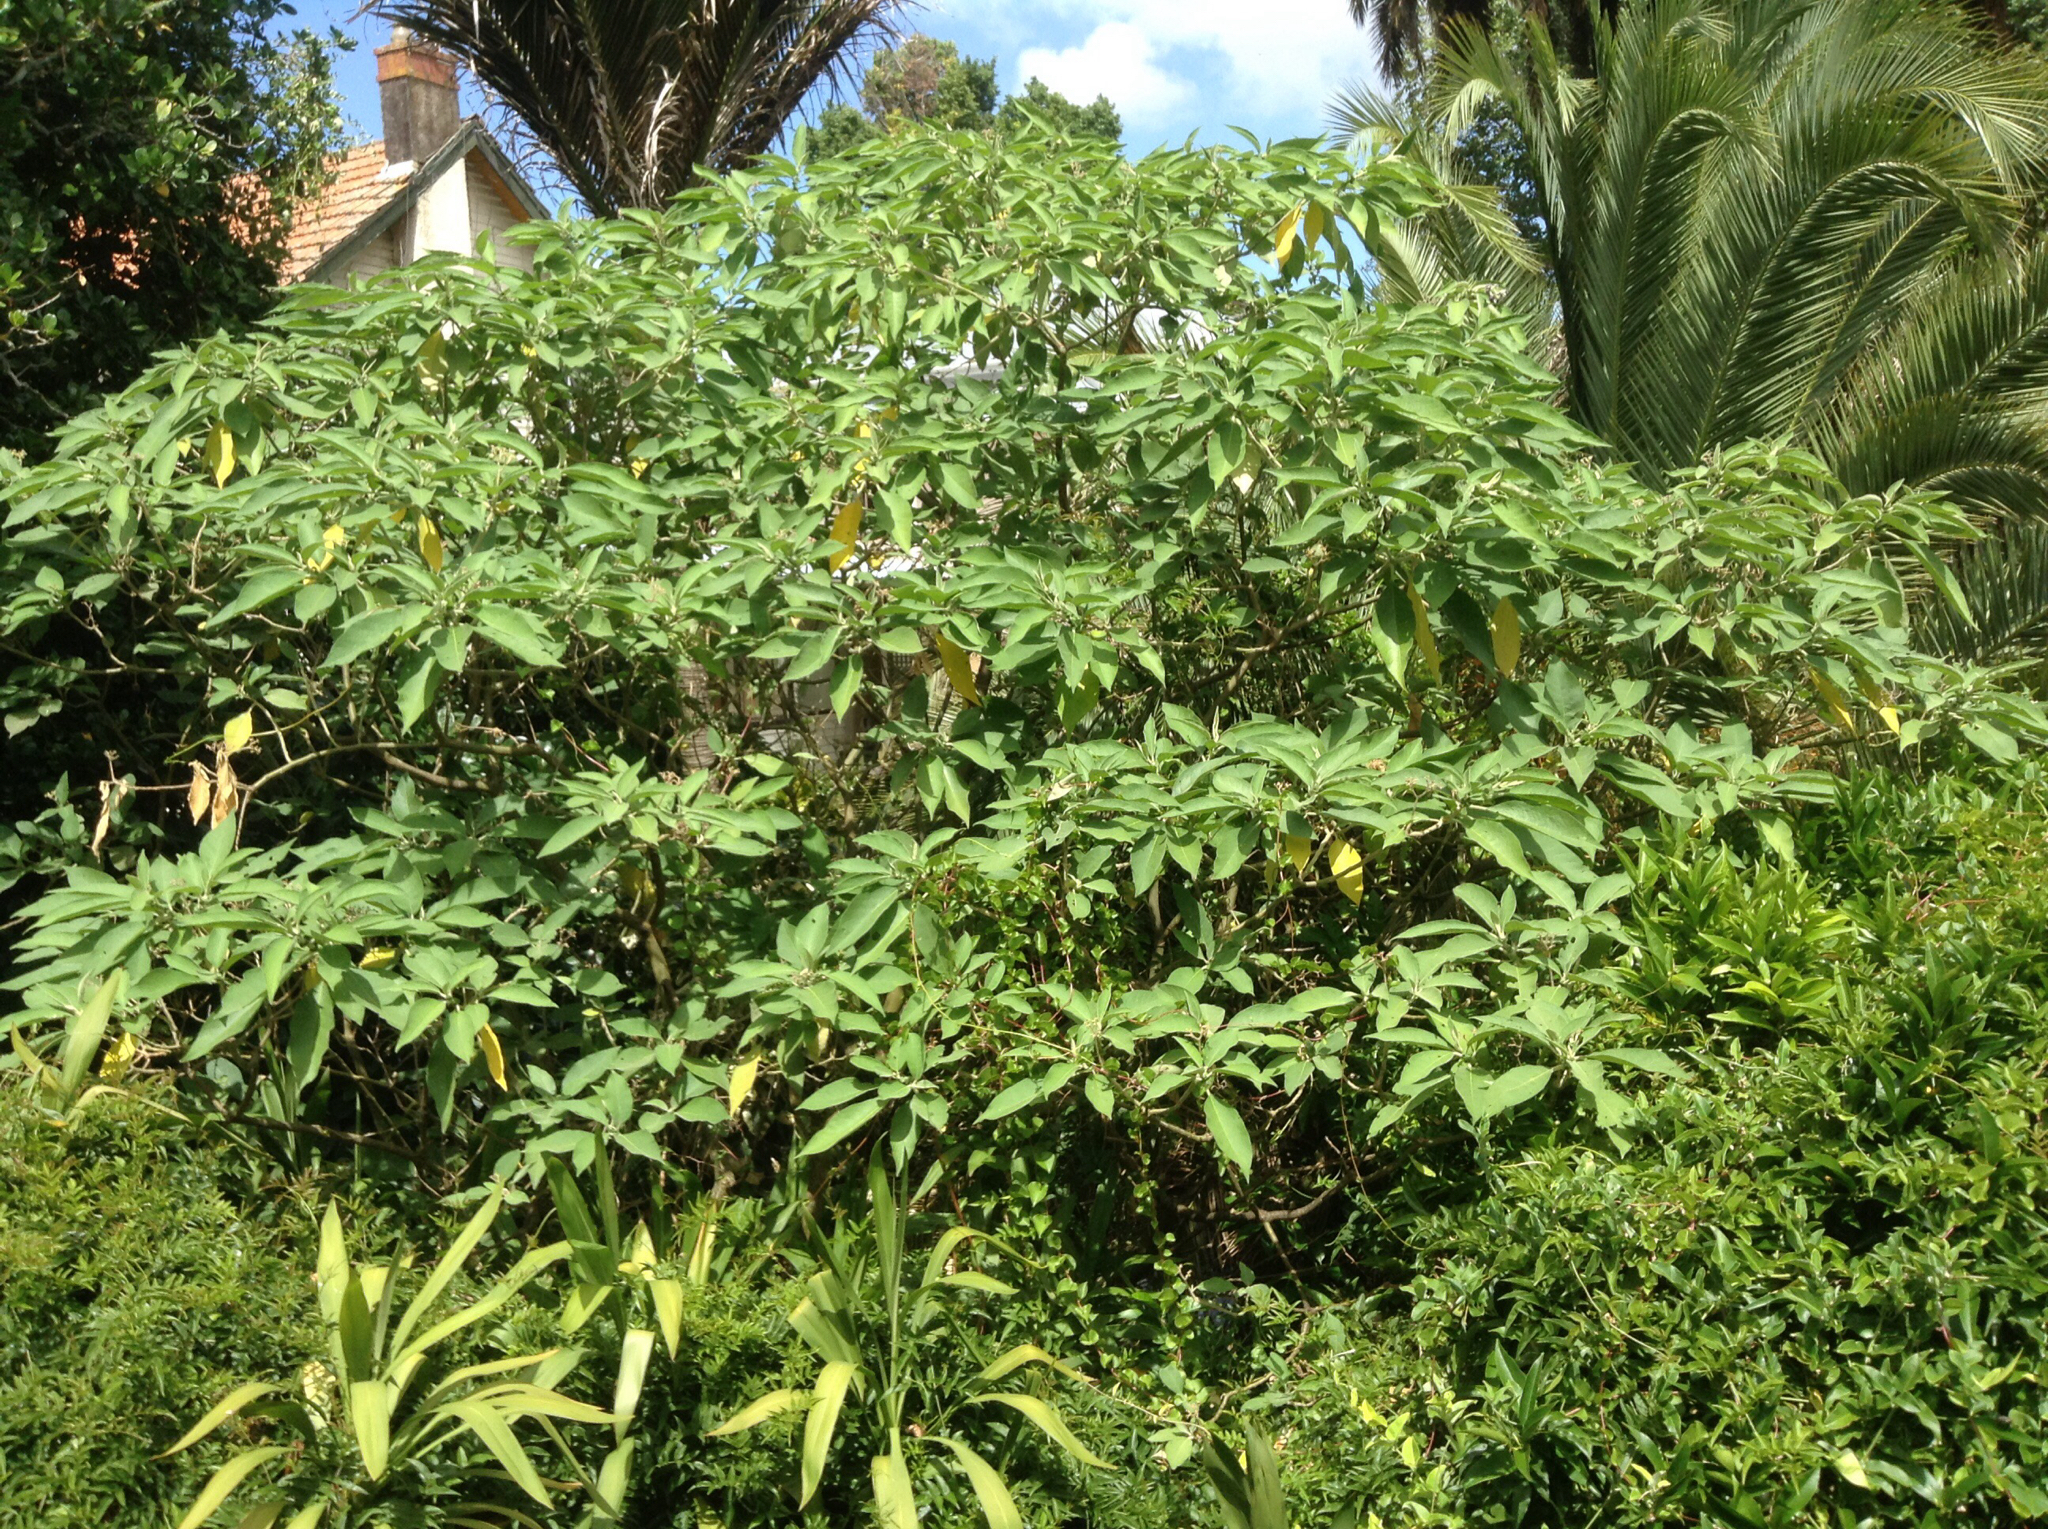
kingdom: Plantae
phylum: Tracheophyta
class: Magnoliopsida
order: Solanales
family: Solanaceae
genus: Solanum
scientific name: Solanum mauritianum
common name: Earleaf nightshade
